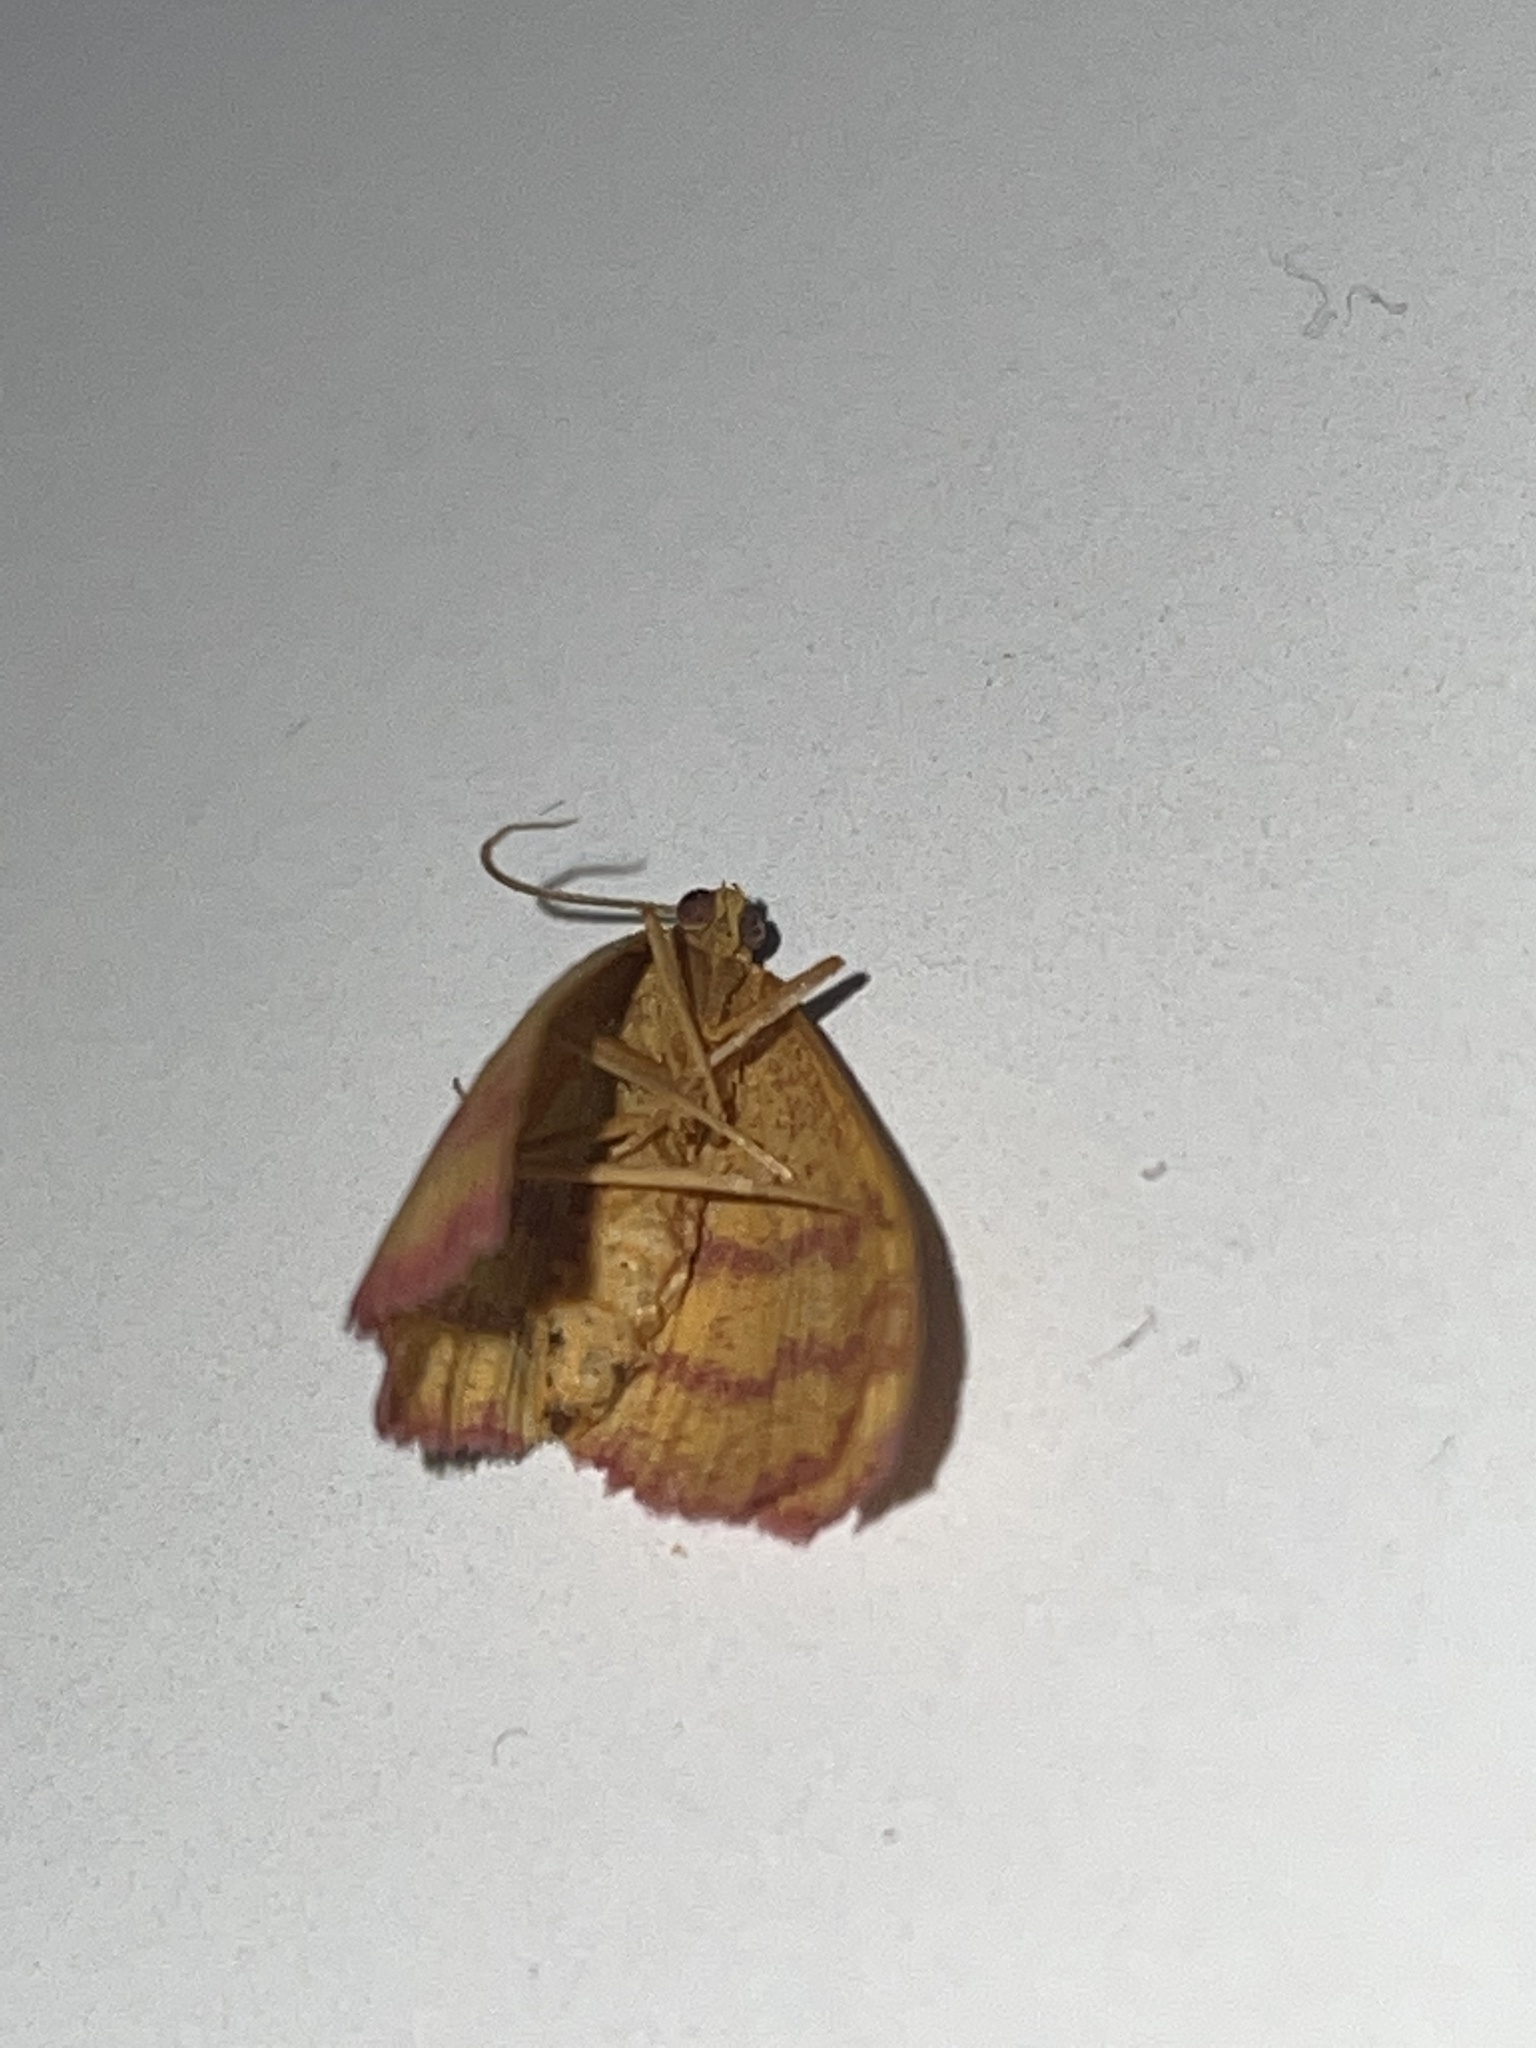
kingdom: Animalia
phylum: Arthropoda
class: Insecta
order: Lepidoptera
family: Geometridae
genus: Haematopis
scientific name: Haematopis grataria
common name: Chickweed geometer
